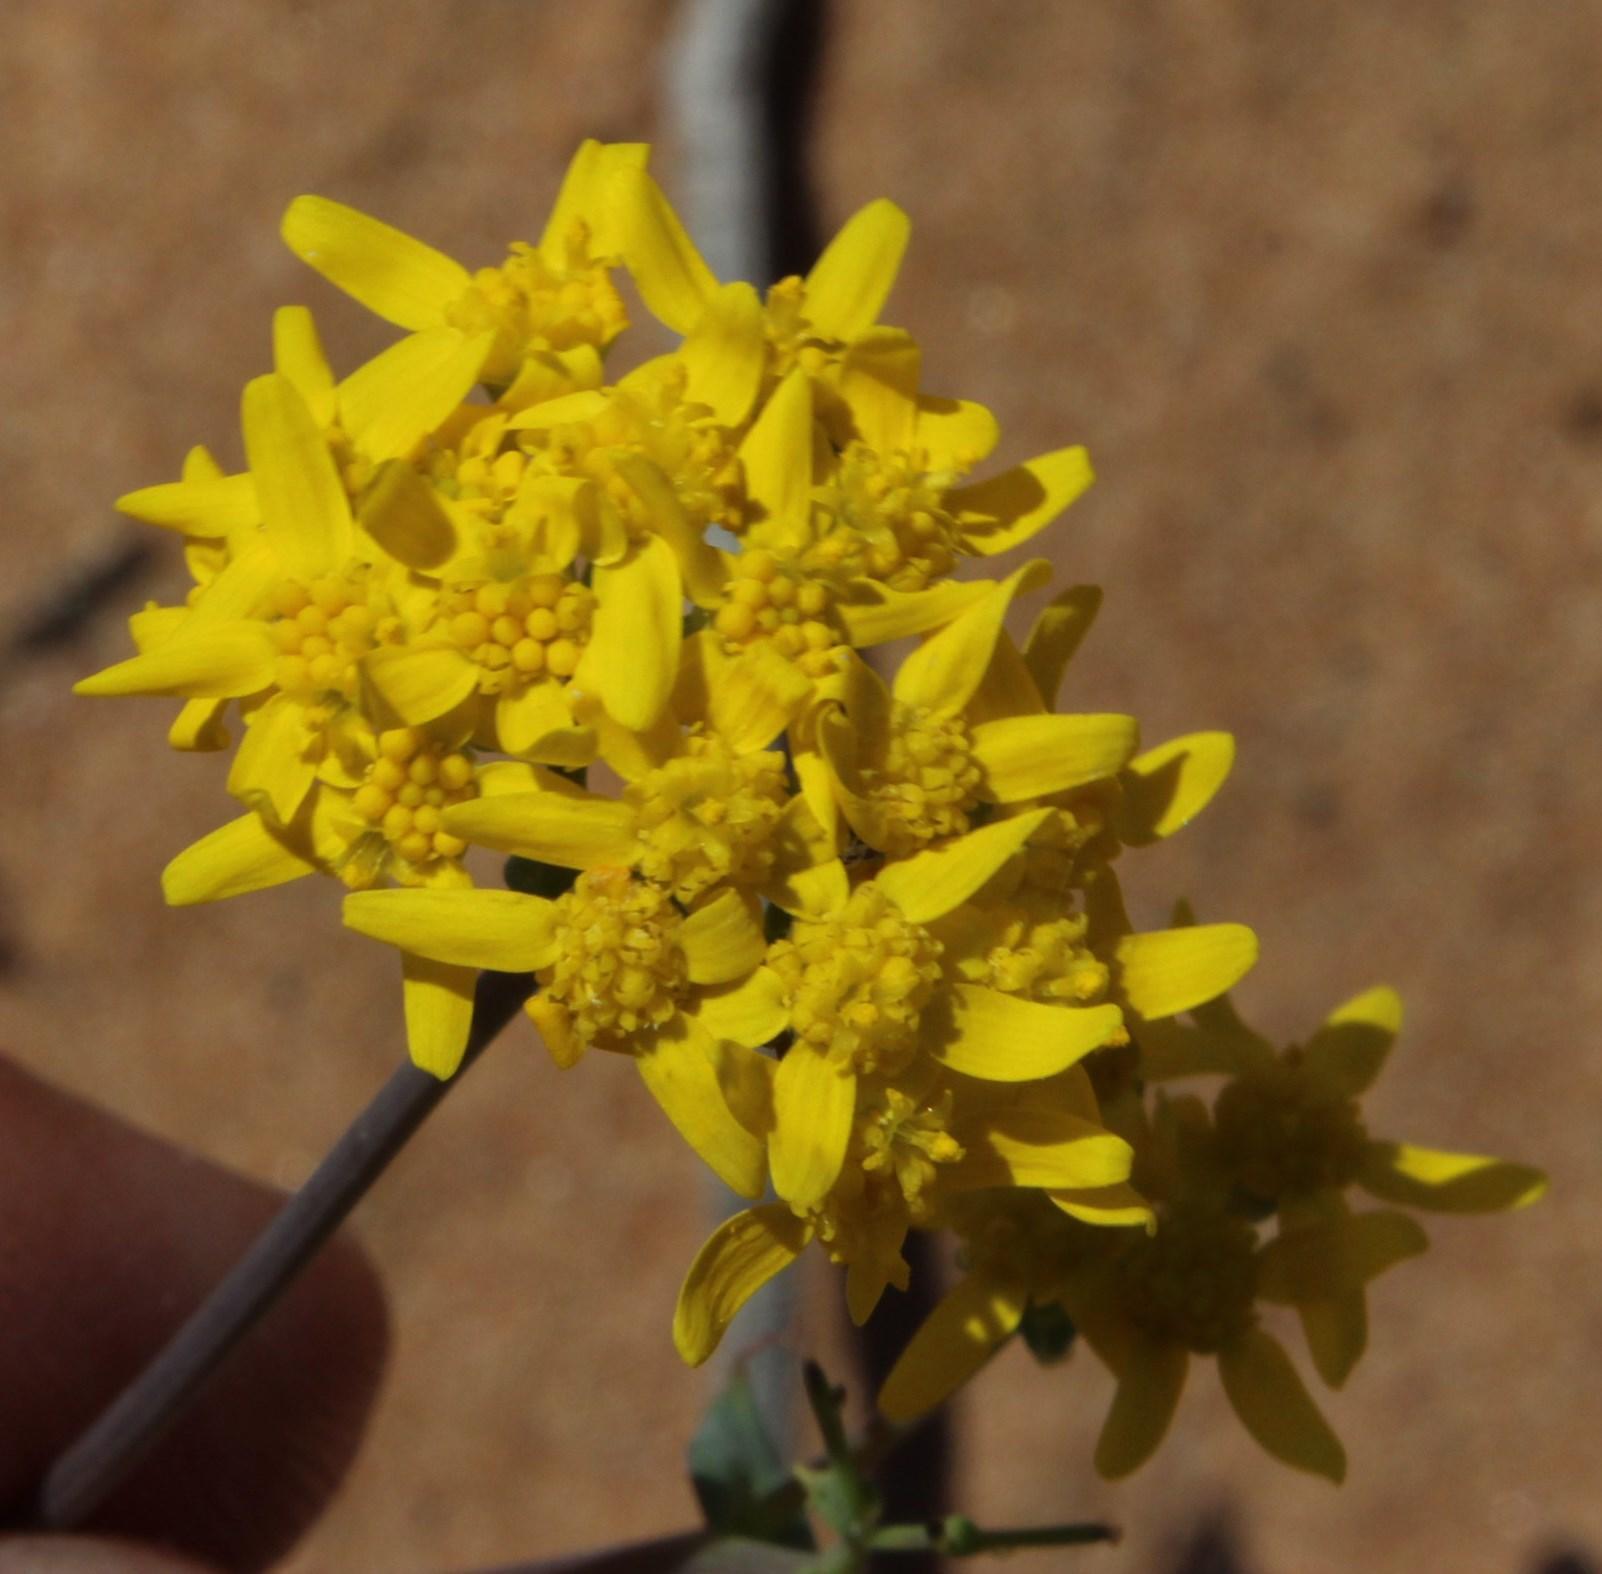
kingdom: Plantae
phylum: Tracheophyta
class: Magnoliopsida
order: Asterales
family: Asteraceae
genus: Gymnodiscus
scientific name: Gymnodiscus capillaris
